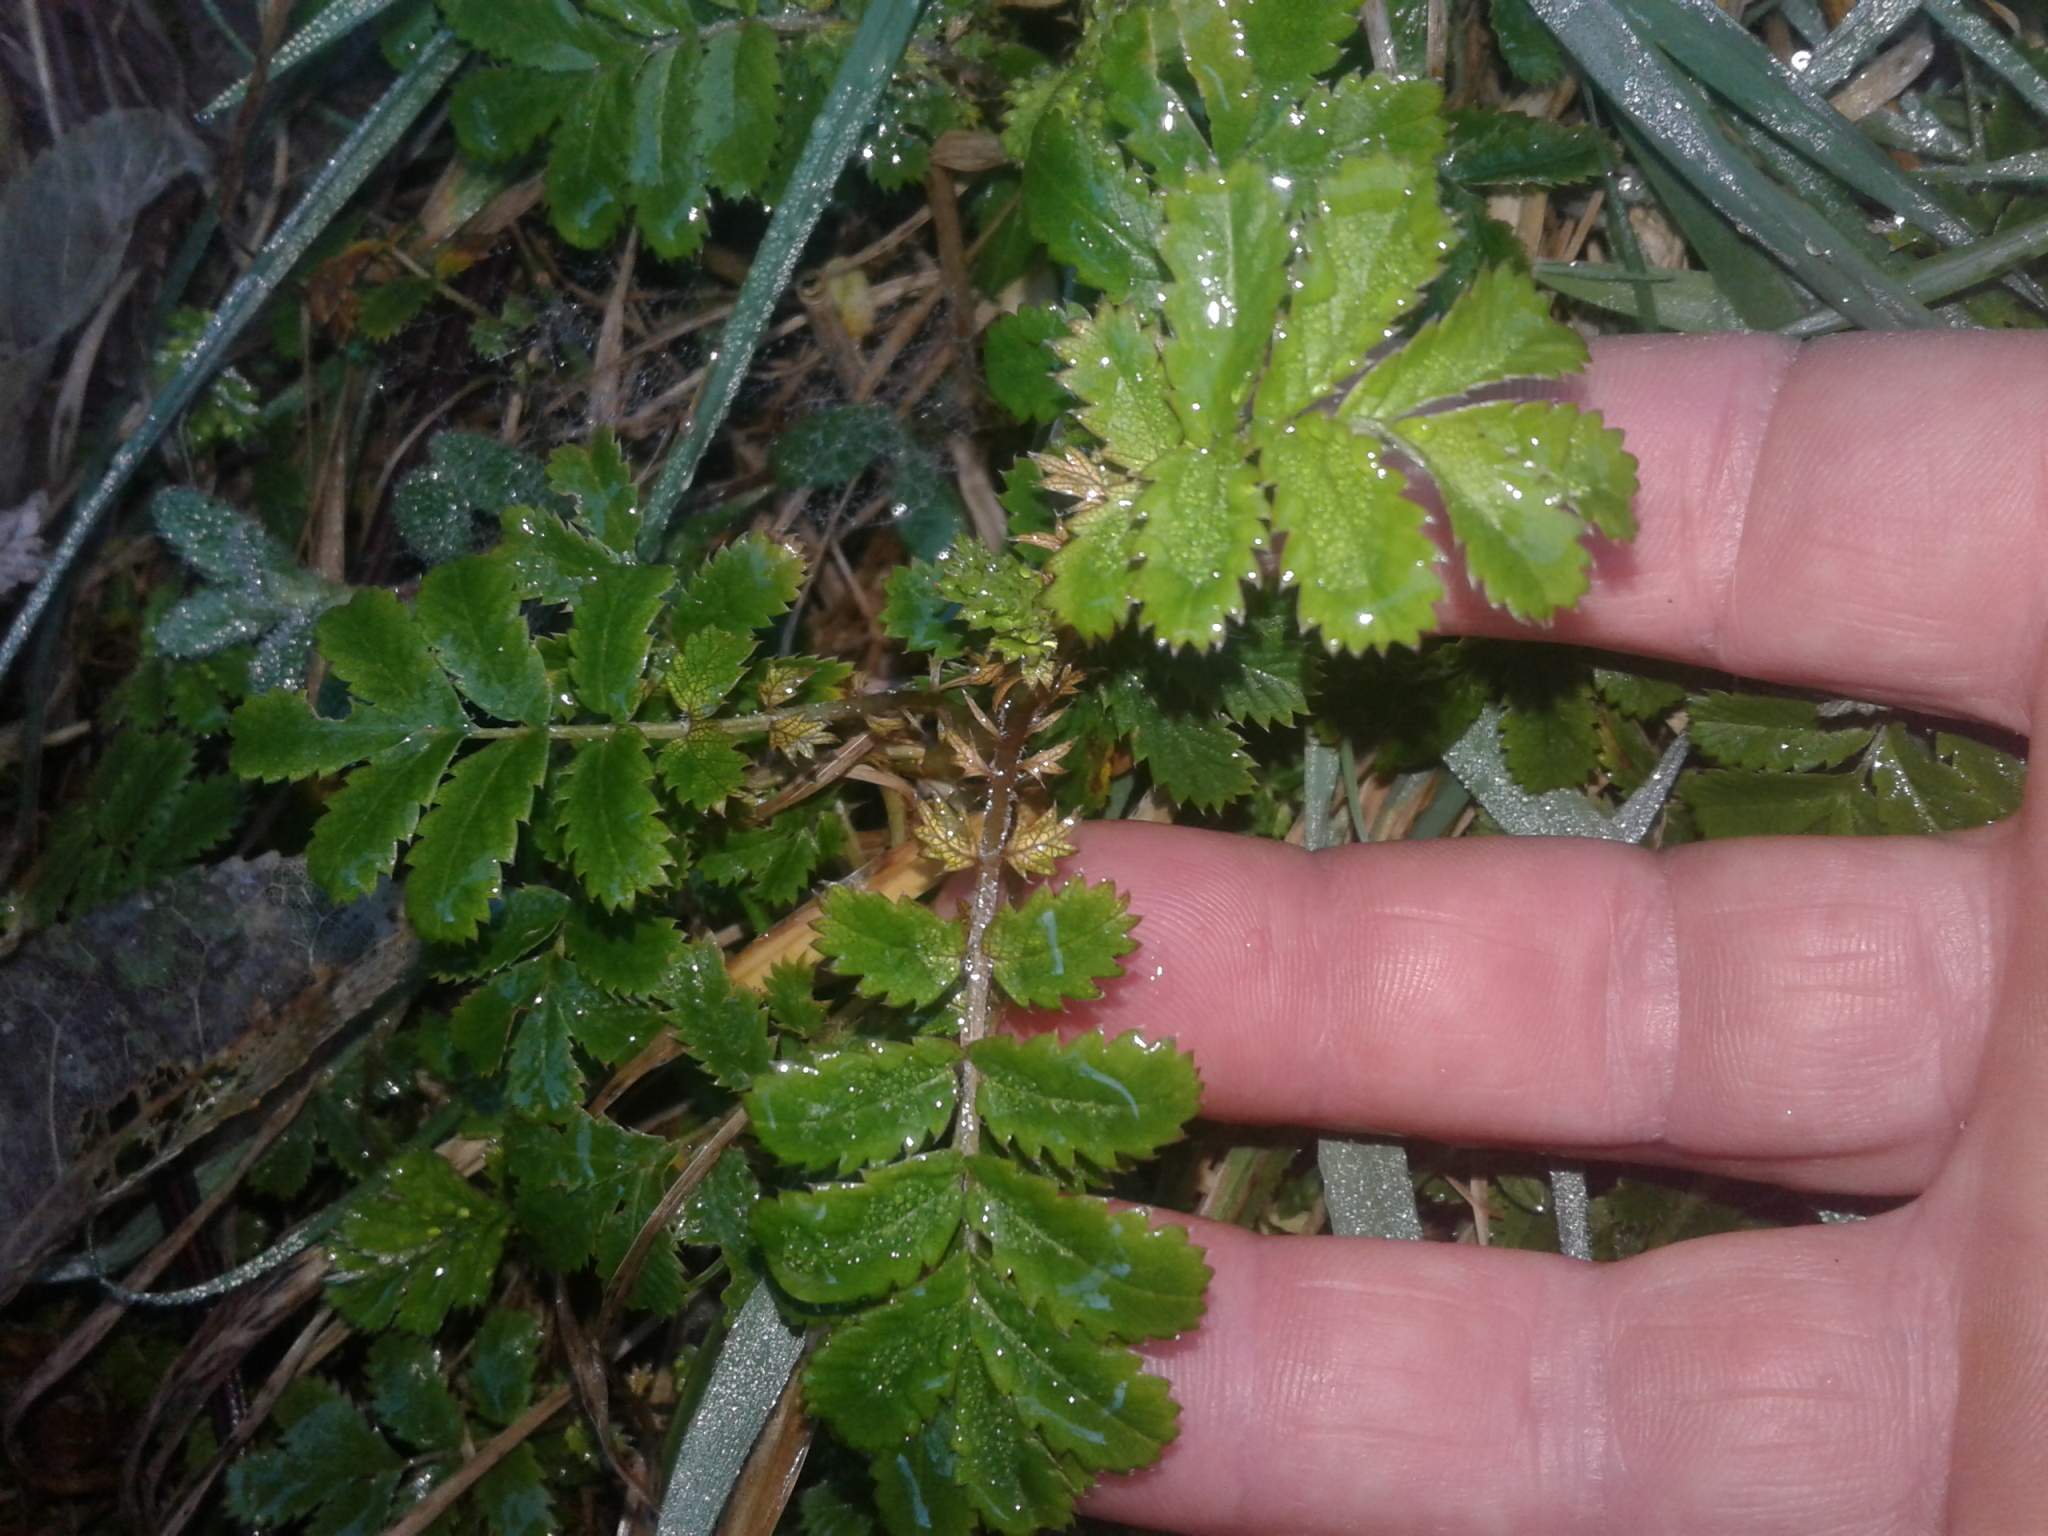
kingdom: Plantae
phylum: Tracheophyta
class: Magnoliopsida
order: Rosales
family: Rosaceae
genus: Acaena
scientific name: Acaena anserinifolia
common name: Bronze pirri-pirri-bur
